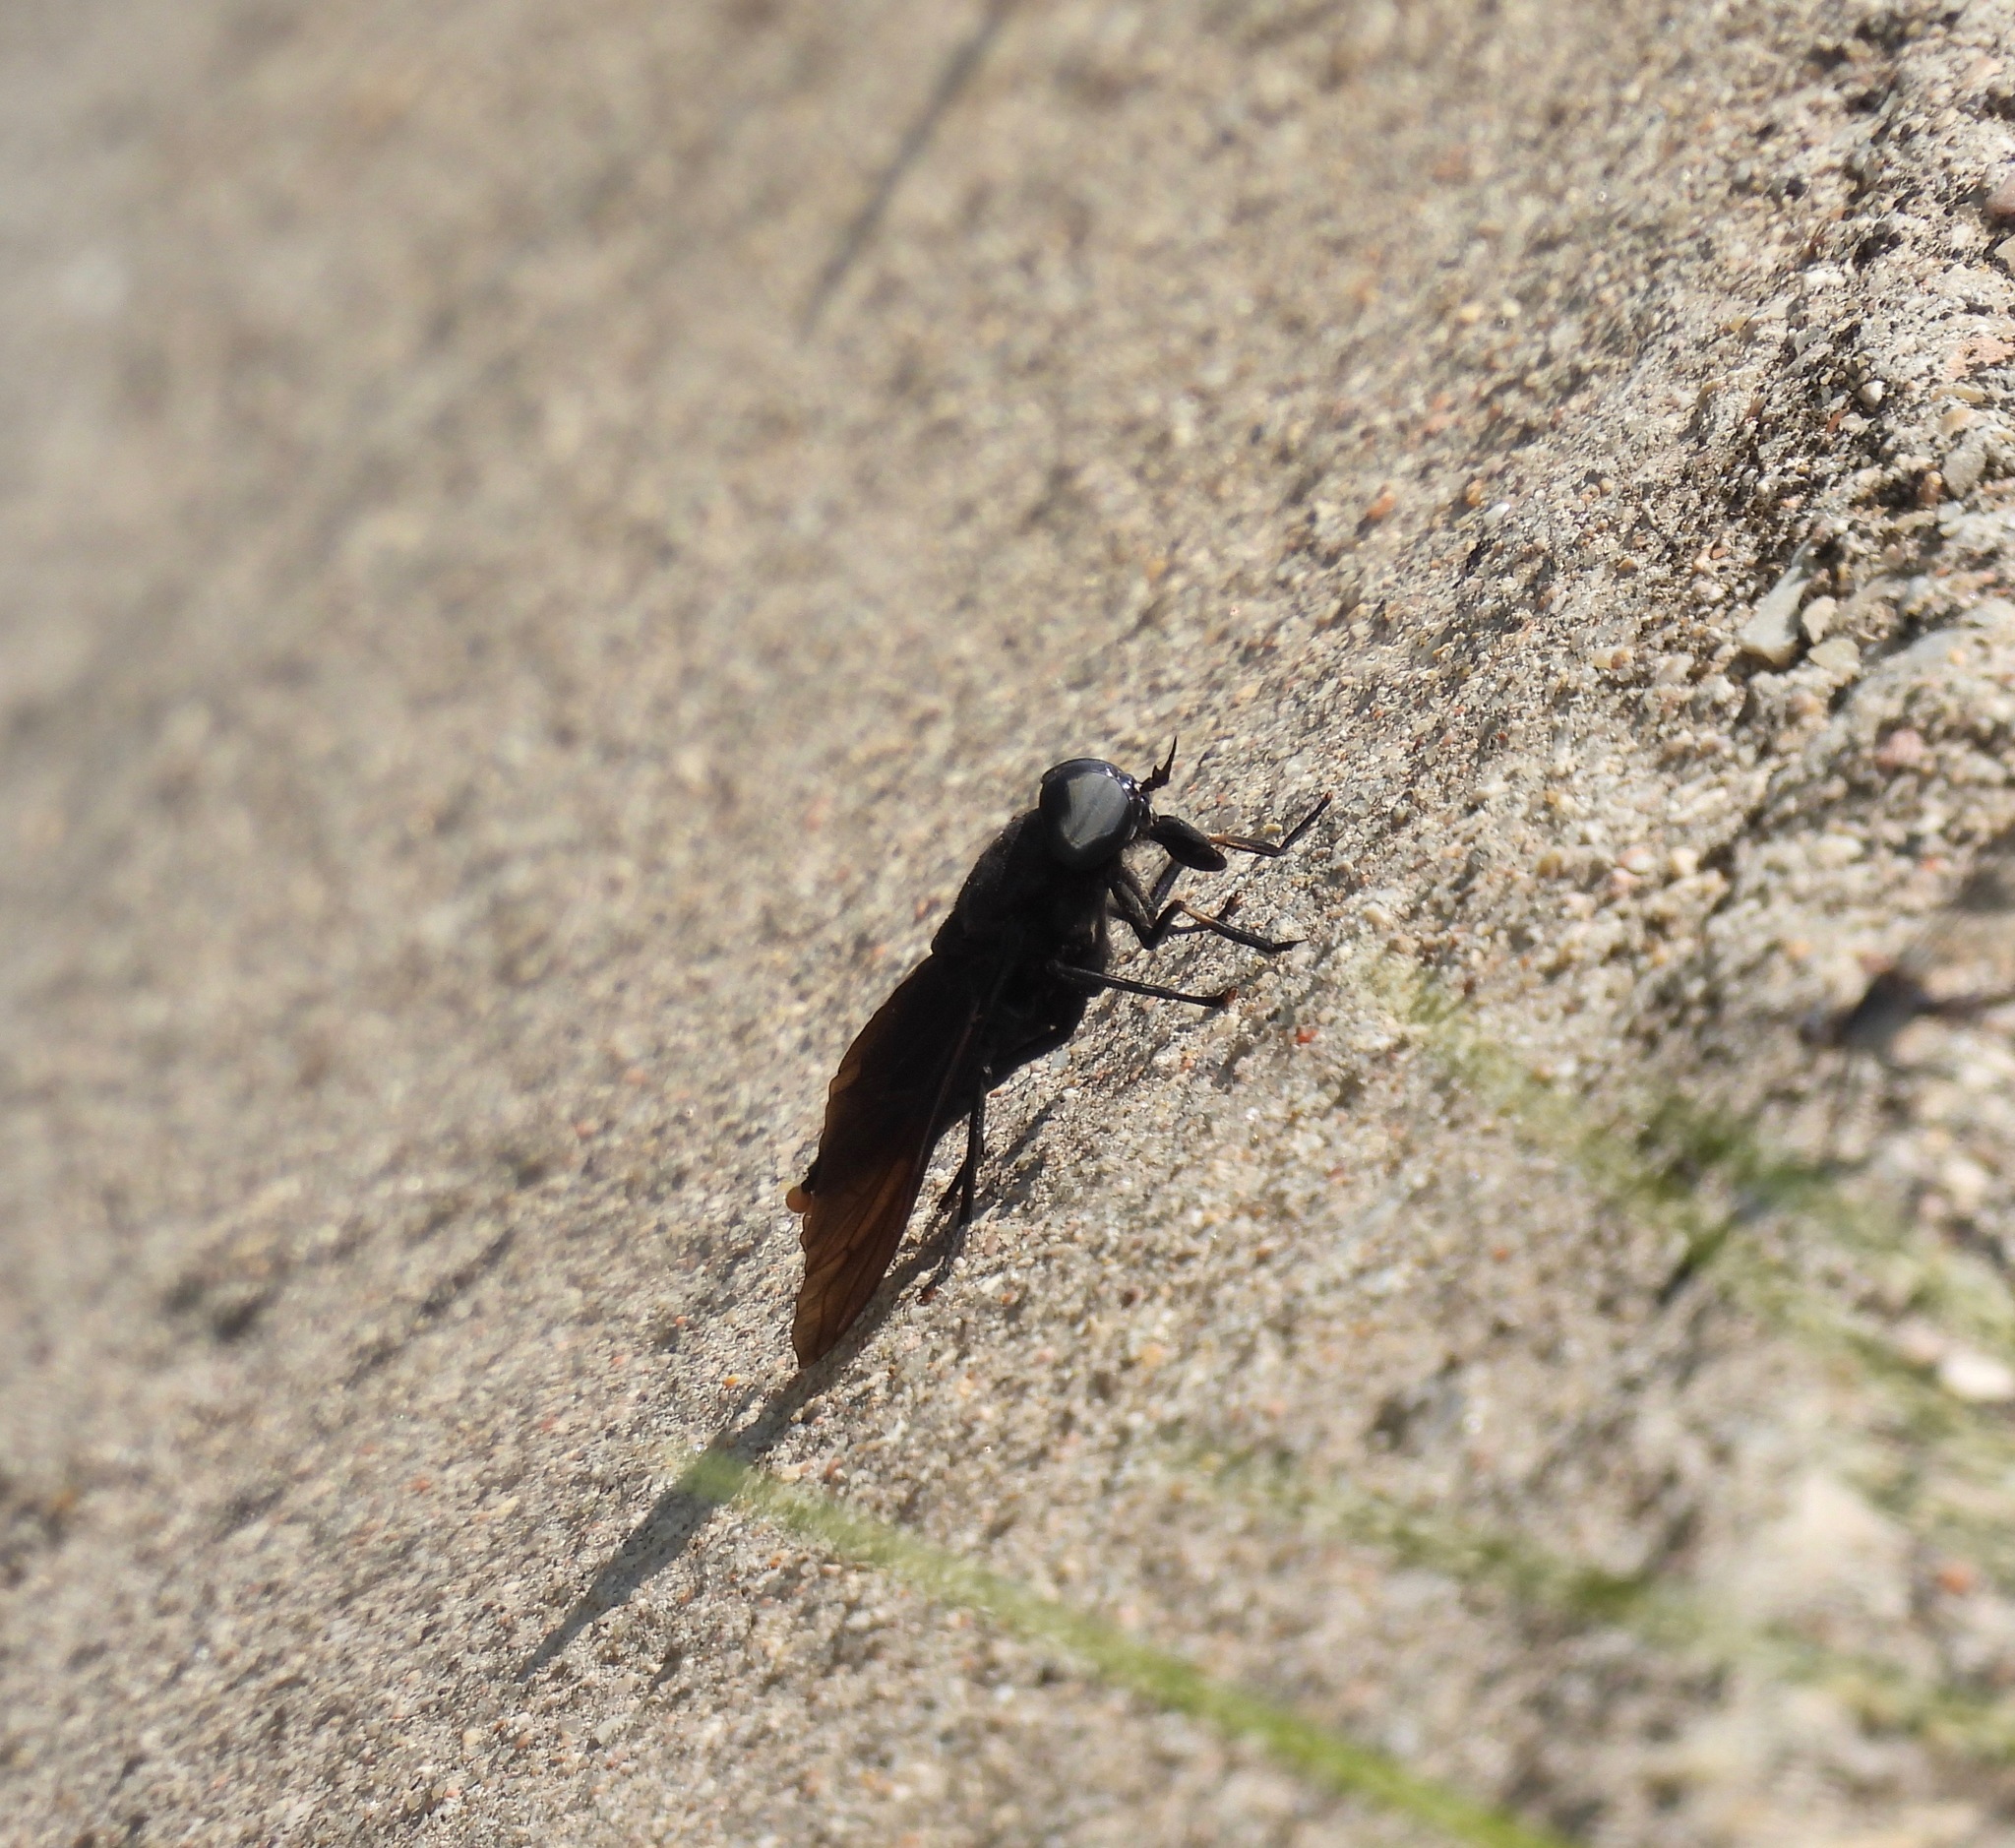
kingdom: Animalia
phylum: Arthropoda
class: Insecta
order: Diptera
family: Tabanidae
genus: Tabanus
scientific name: Tabanus atratus
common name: Black horse fly
